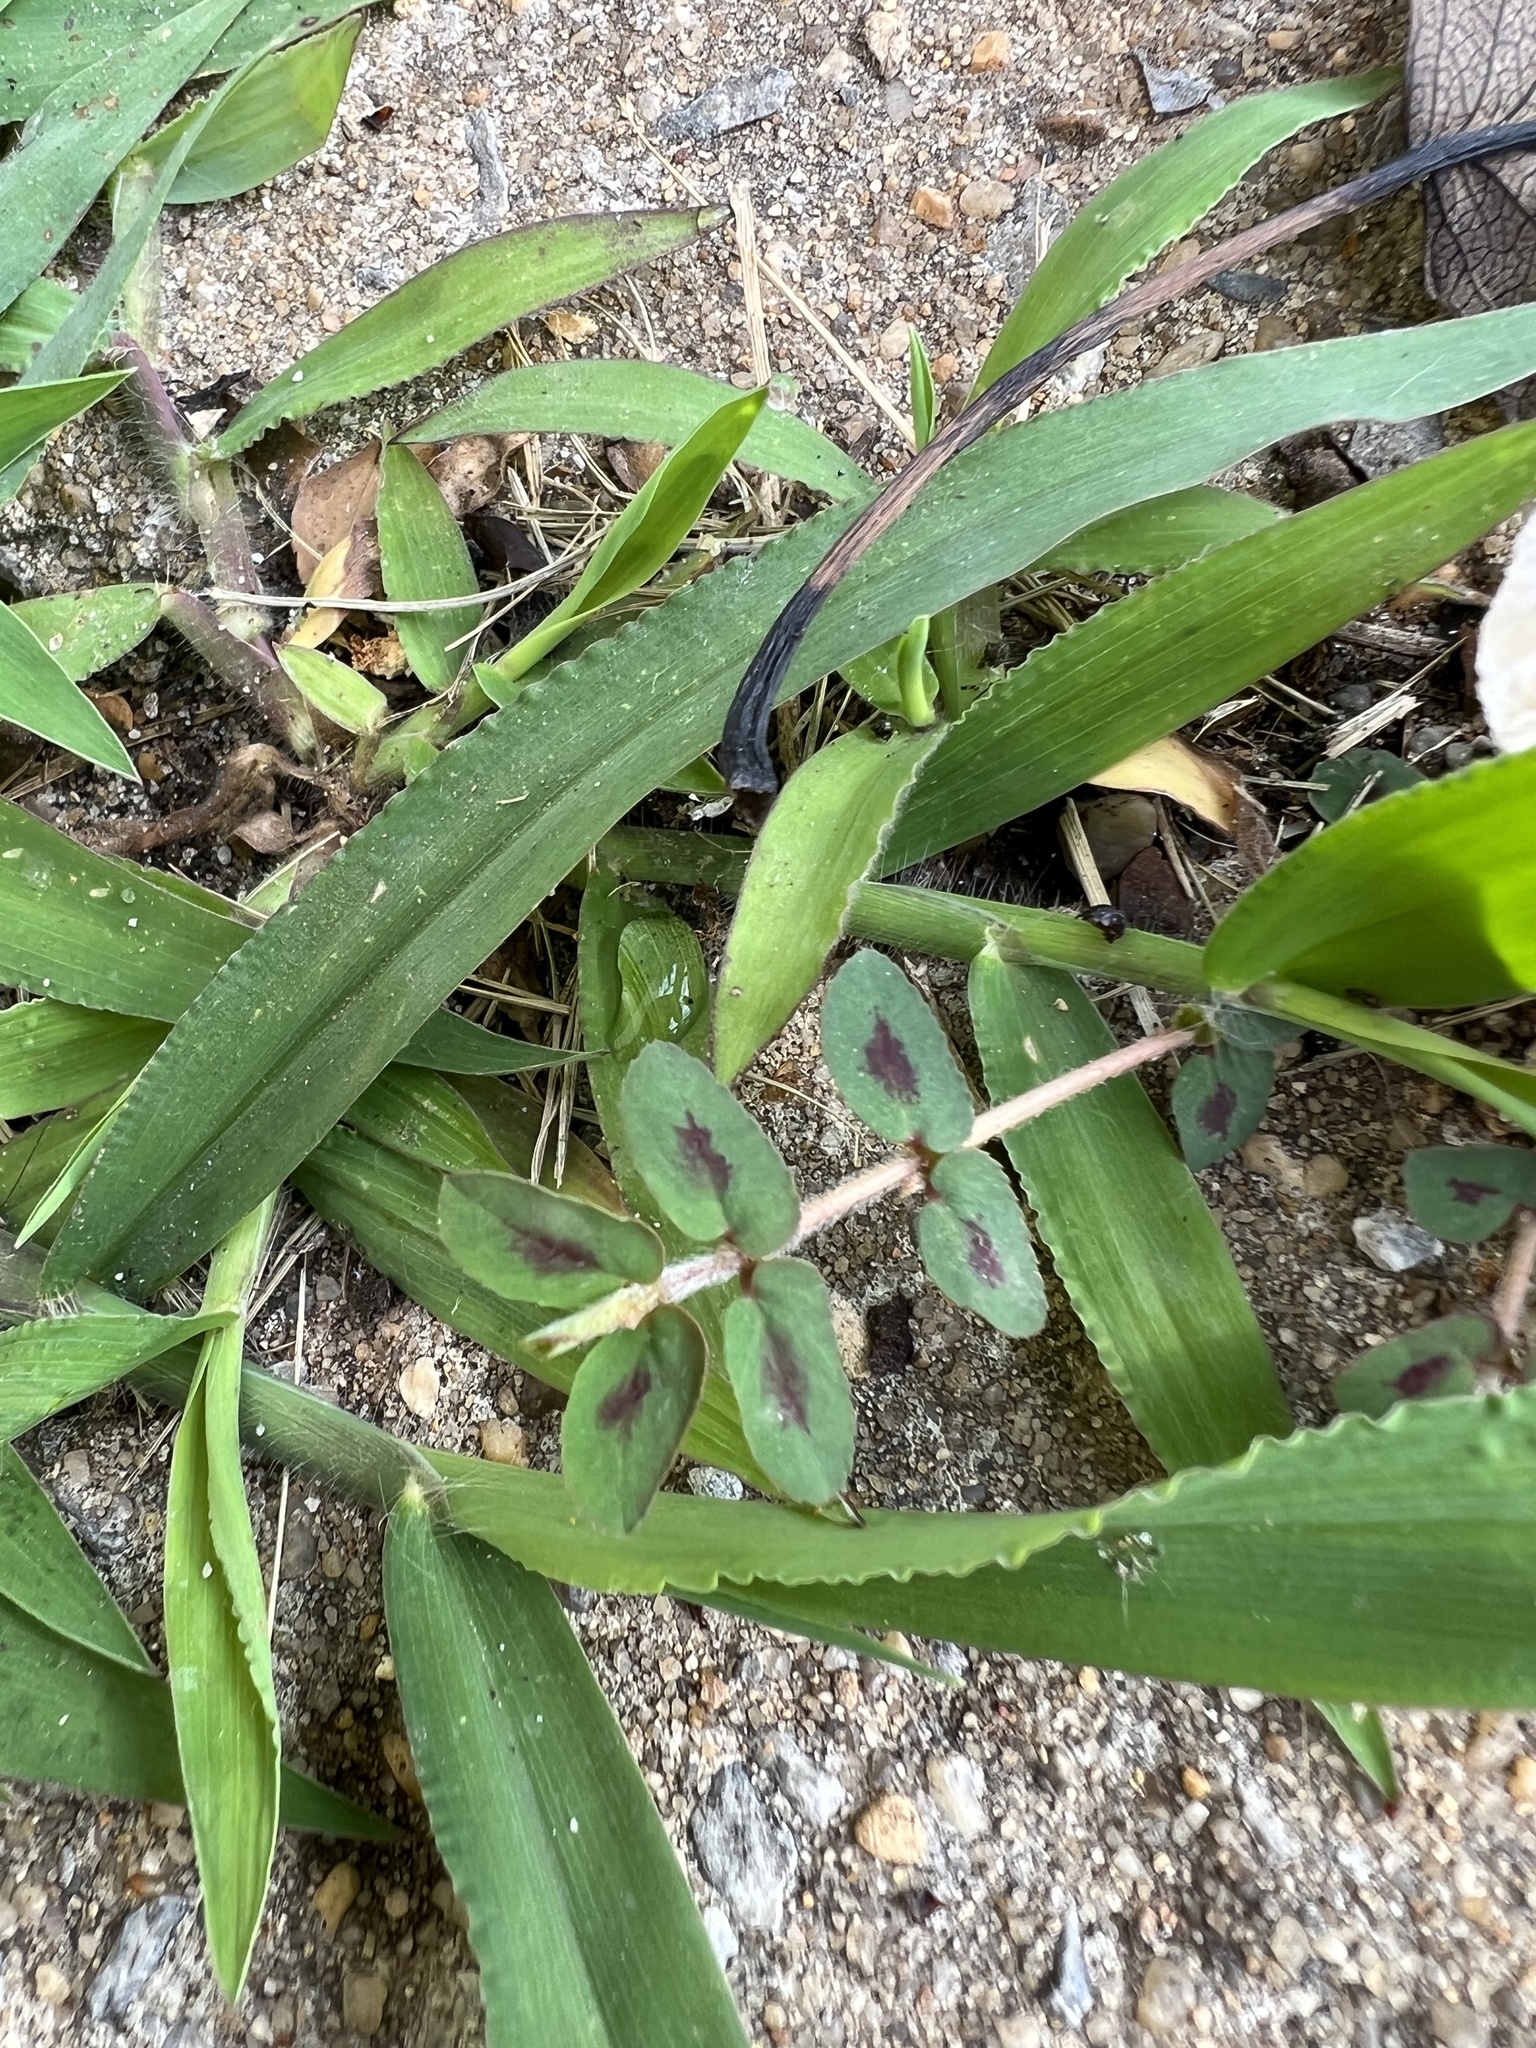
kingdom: Plantae
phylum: Tracheophyta
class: Magnoliopsida
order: Malpighiales
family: Euphorbiaceae
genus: Euphorbia
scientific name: Euphorbia maculata
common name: Spotted spurge
